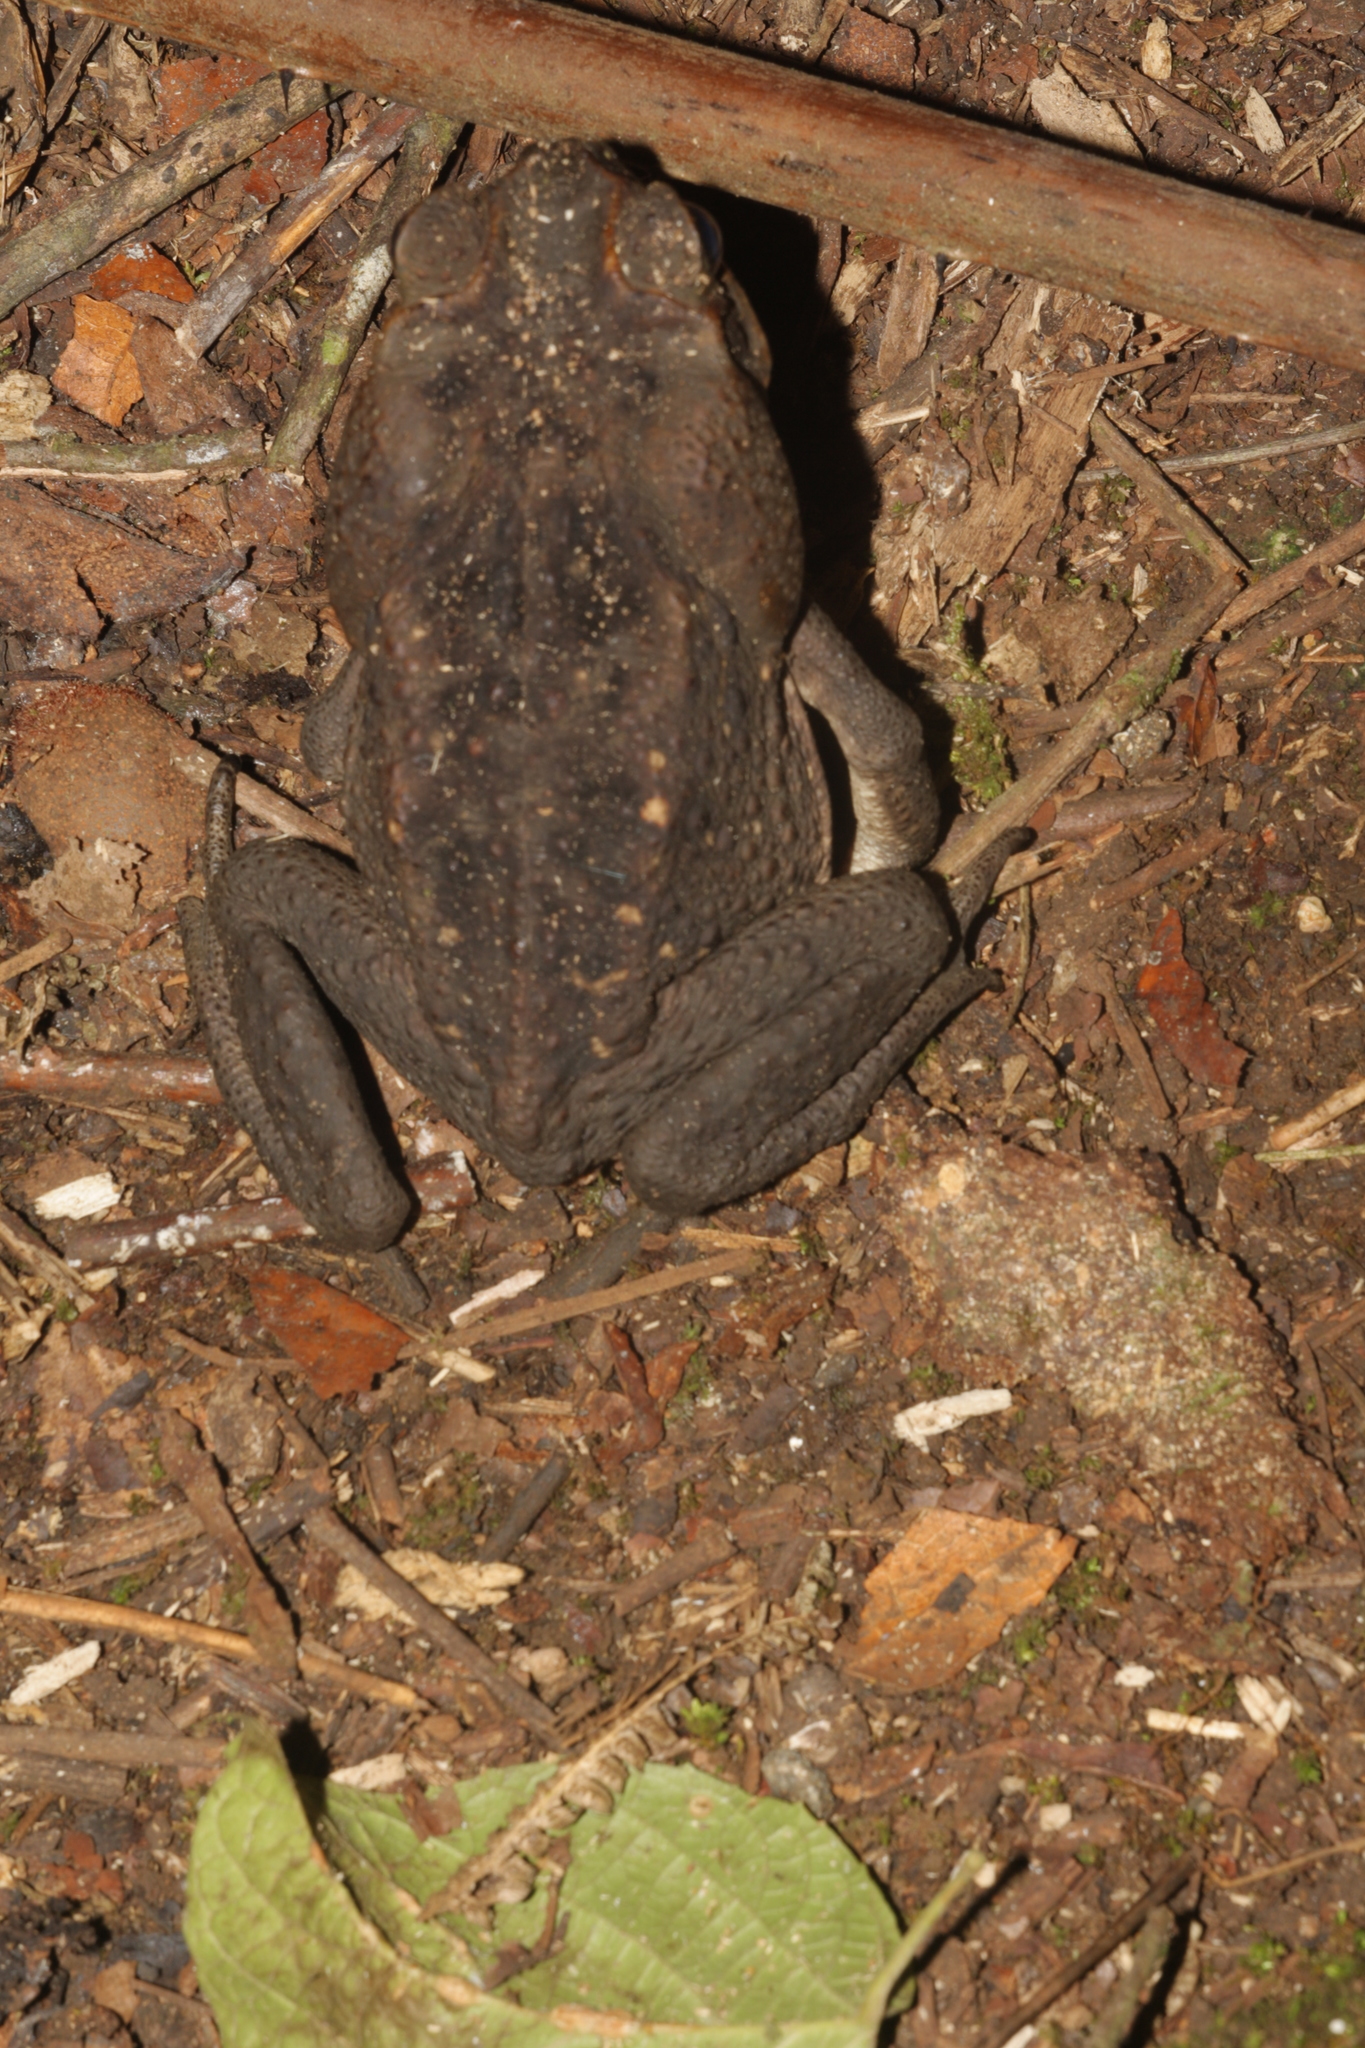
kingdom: Animalia
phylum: Chordata
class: Amphibia
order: Anura
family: Bufonidae
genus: Rhinella
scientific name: Rhinella horribilis
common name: Mesoamerican cane toad
